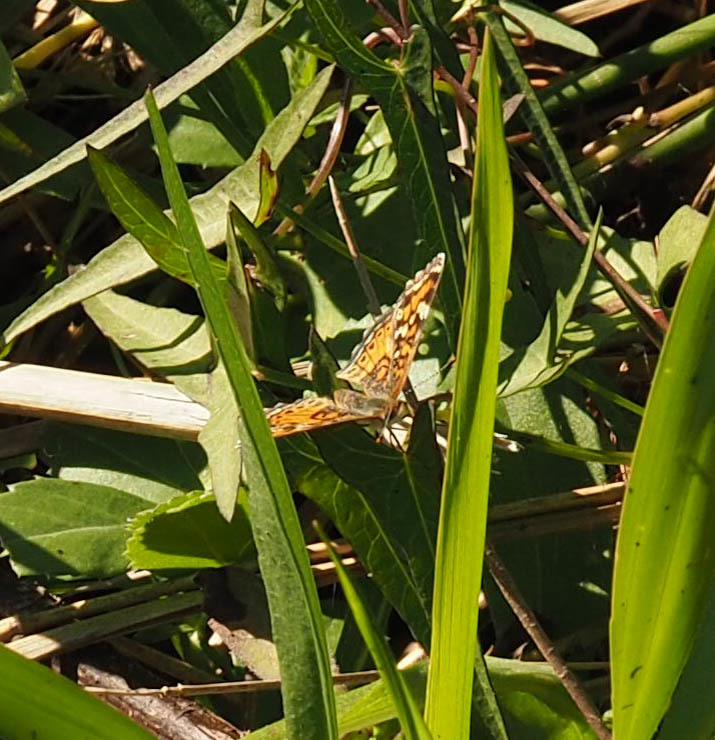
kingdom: Animalia
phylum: Arthropoda
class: Insecta
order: Lepidoptera
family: Nymphalidae
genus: Phyciodes
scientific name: Phyciodes phaon
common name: Phaon crescent
